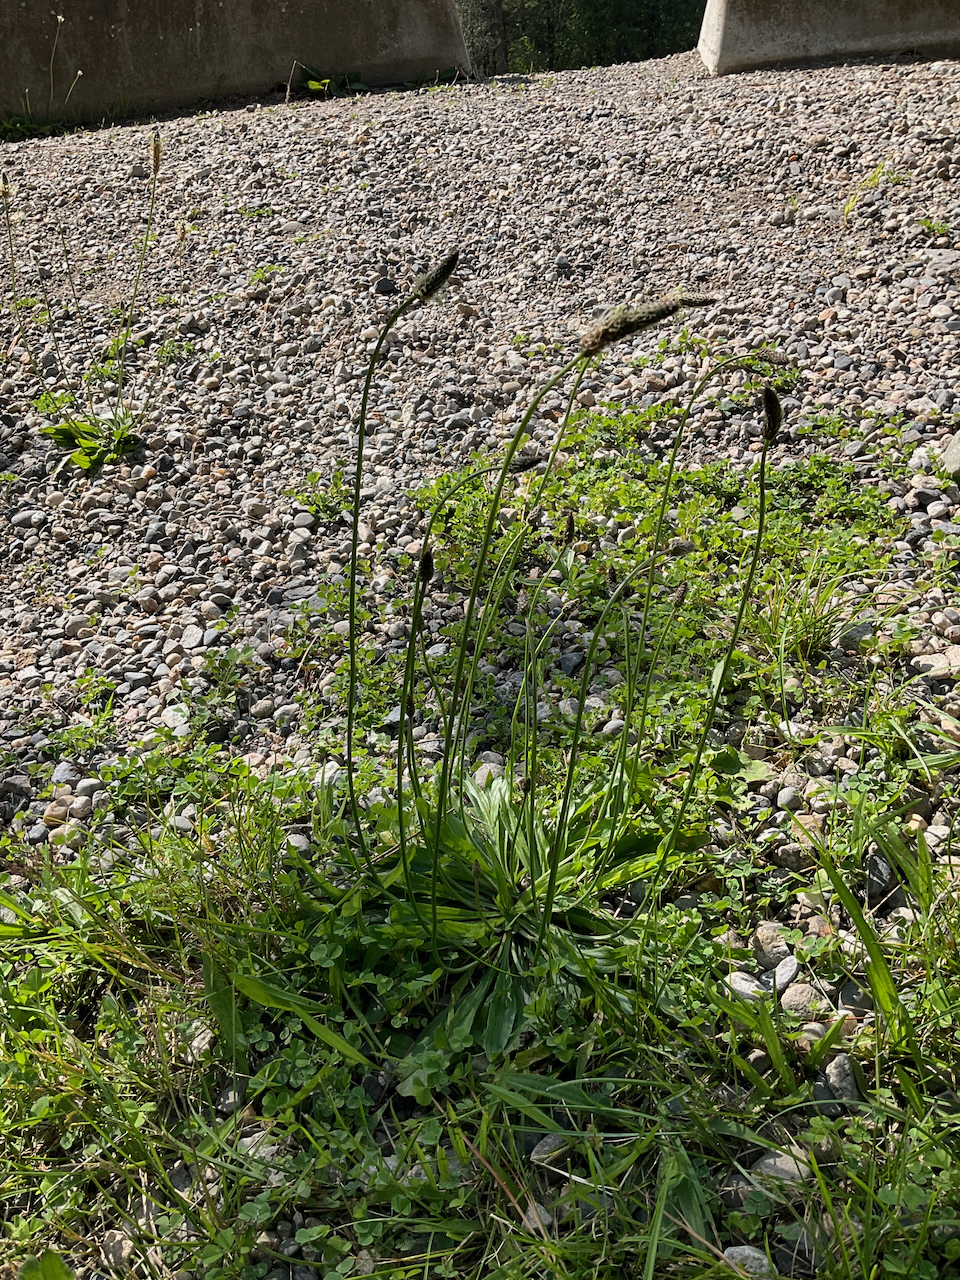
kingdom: Plantae
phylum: Tracheophyta
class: Magnoliopsida
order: Lamiales
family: Plantaginaceae
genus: Plantago
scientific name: Plantago lanceolata
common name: Ribwort plantain
